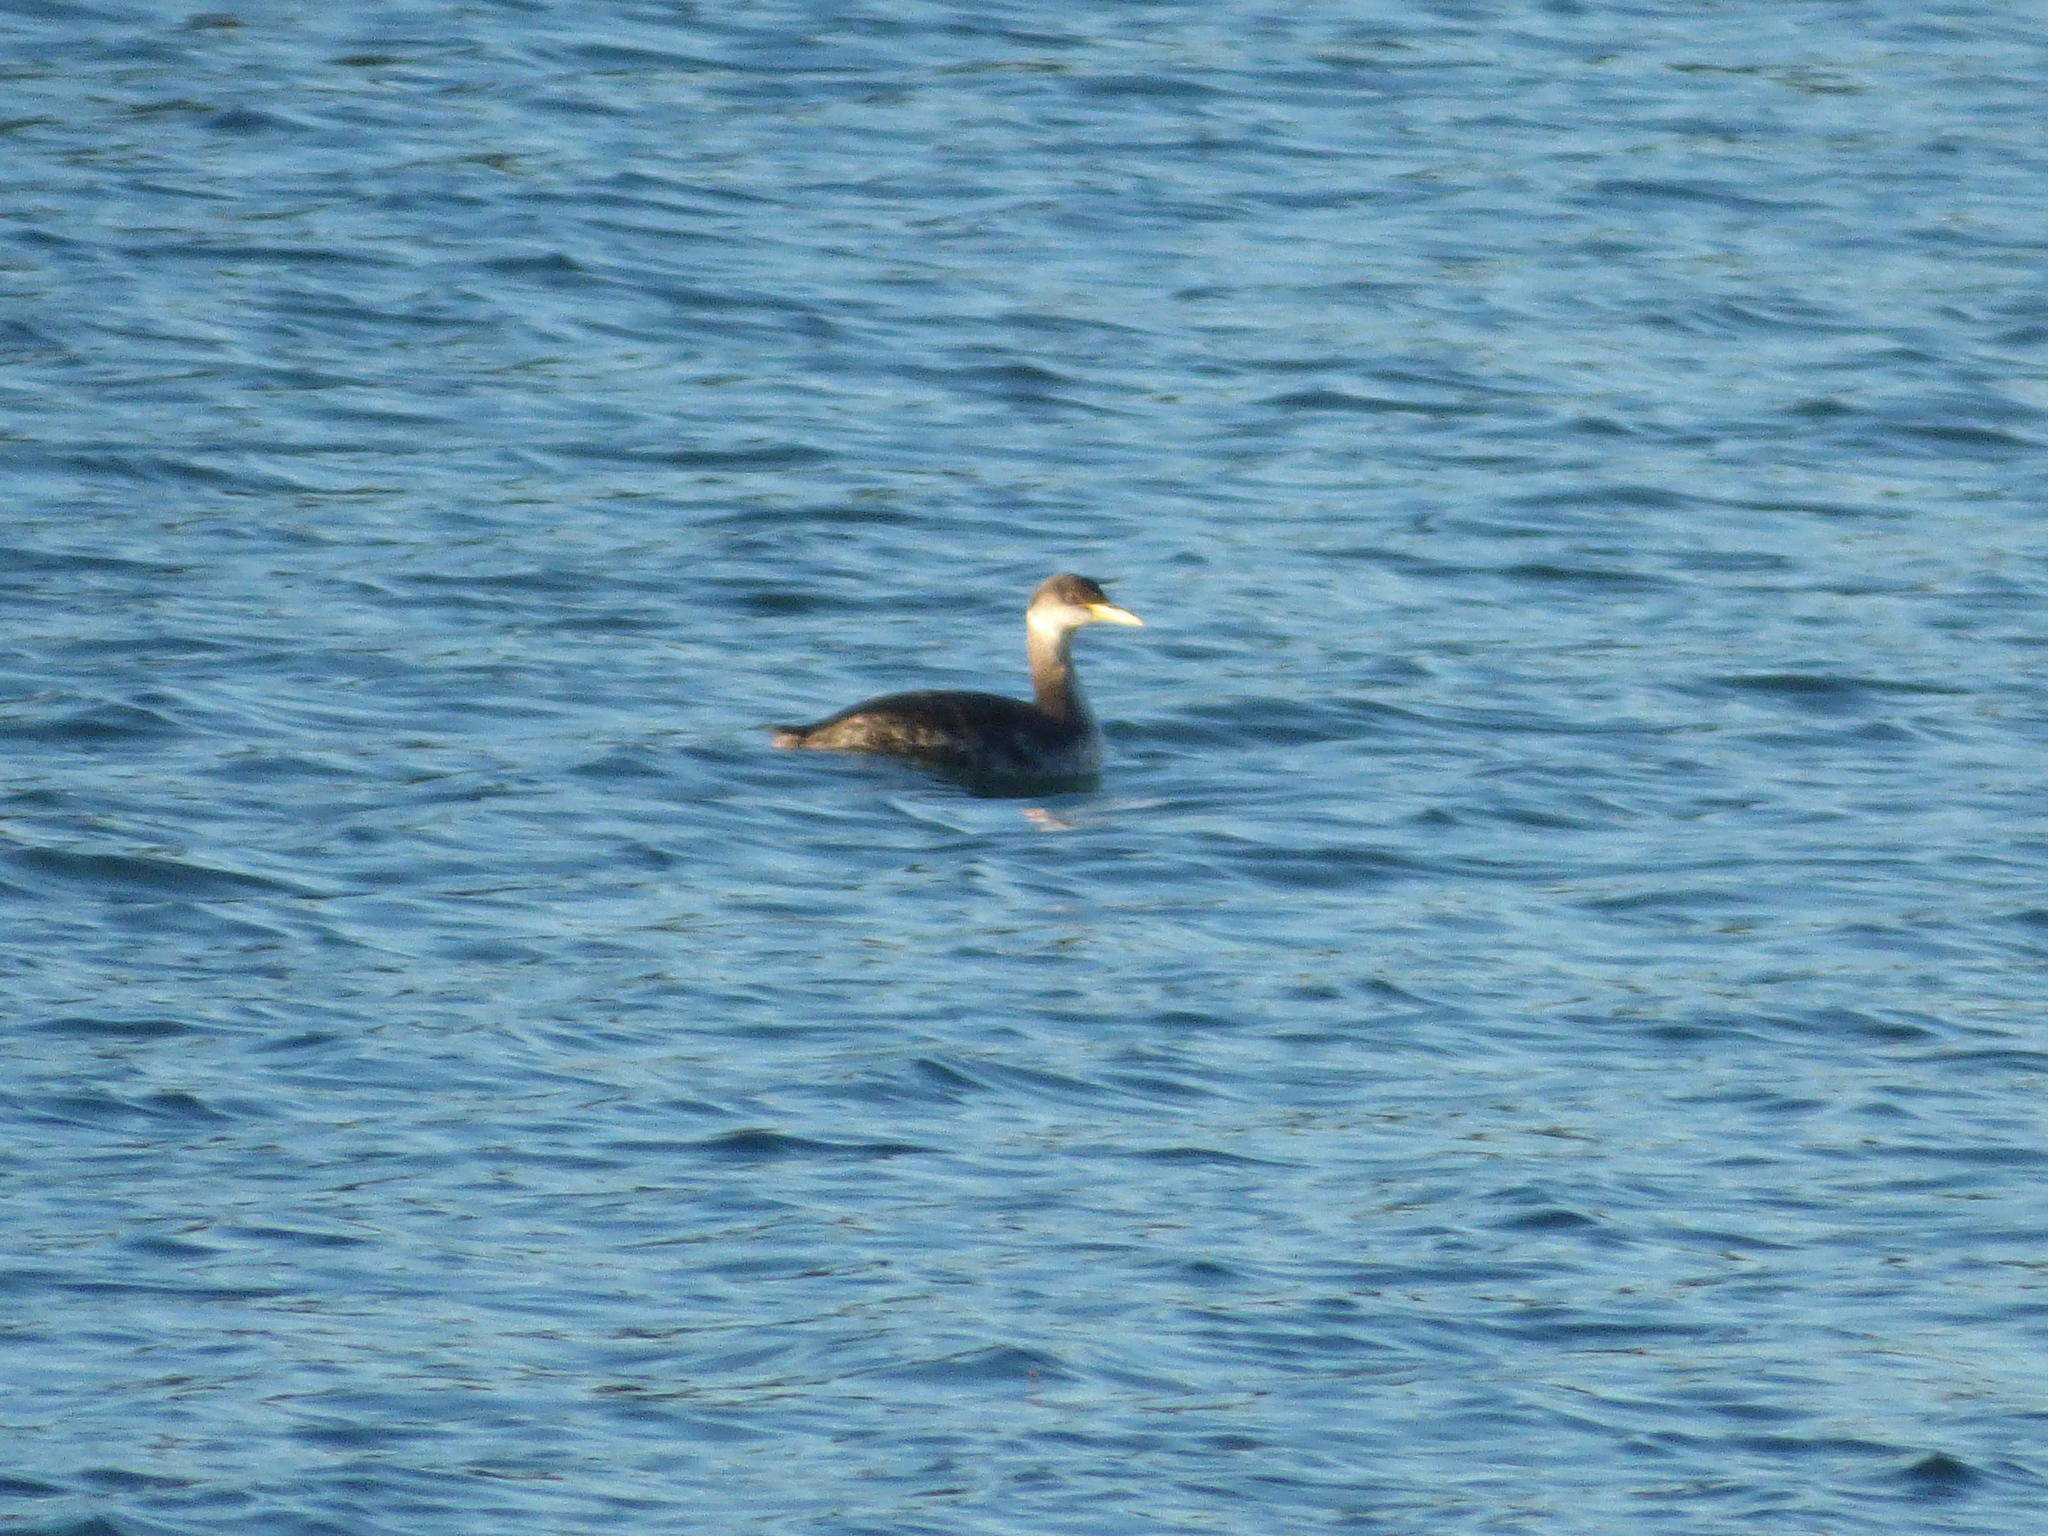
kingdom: Animalia
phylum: Chordata
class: Aves
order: Podicipediformes
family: Podicipedidae
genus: Podiceps
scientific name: Podiceps grisegena
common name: Red-necked grebe
